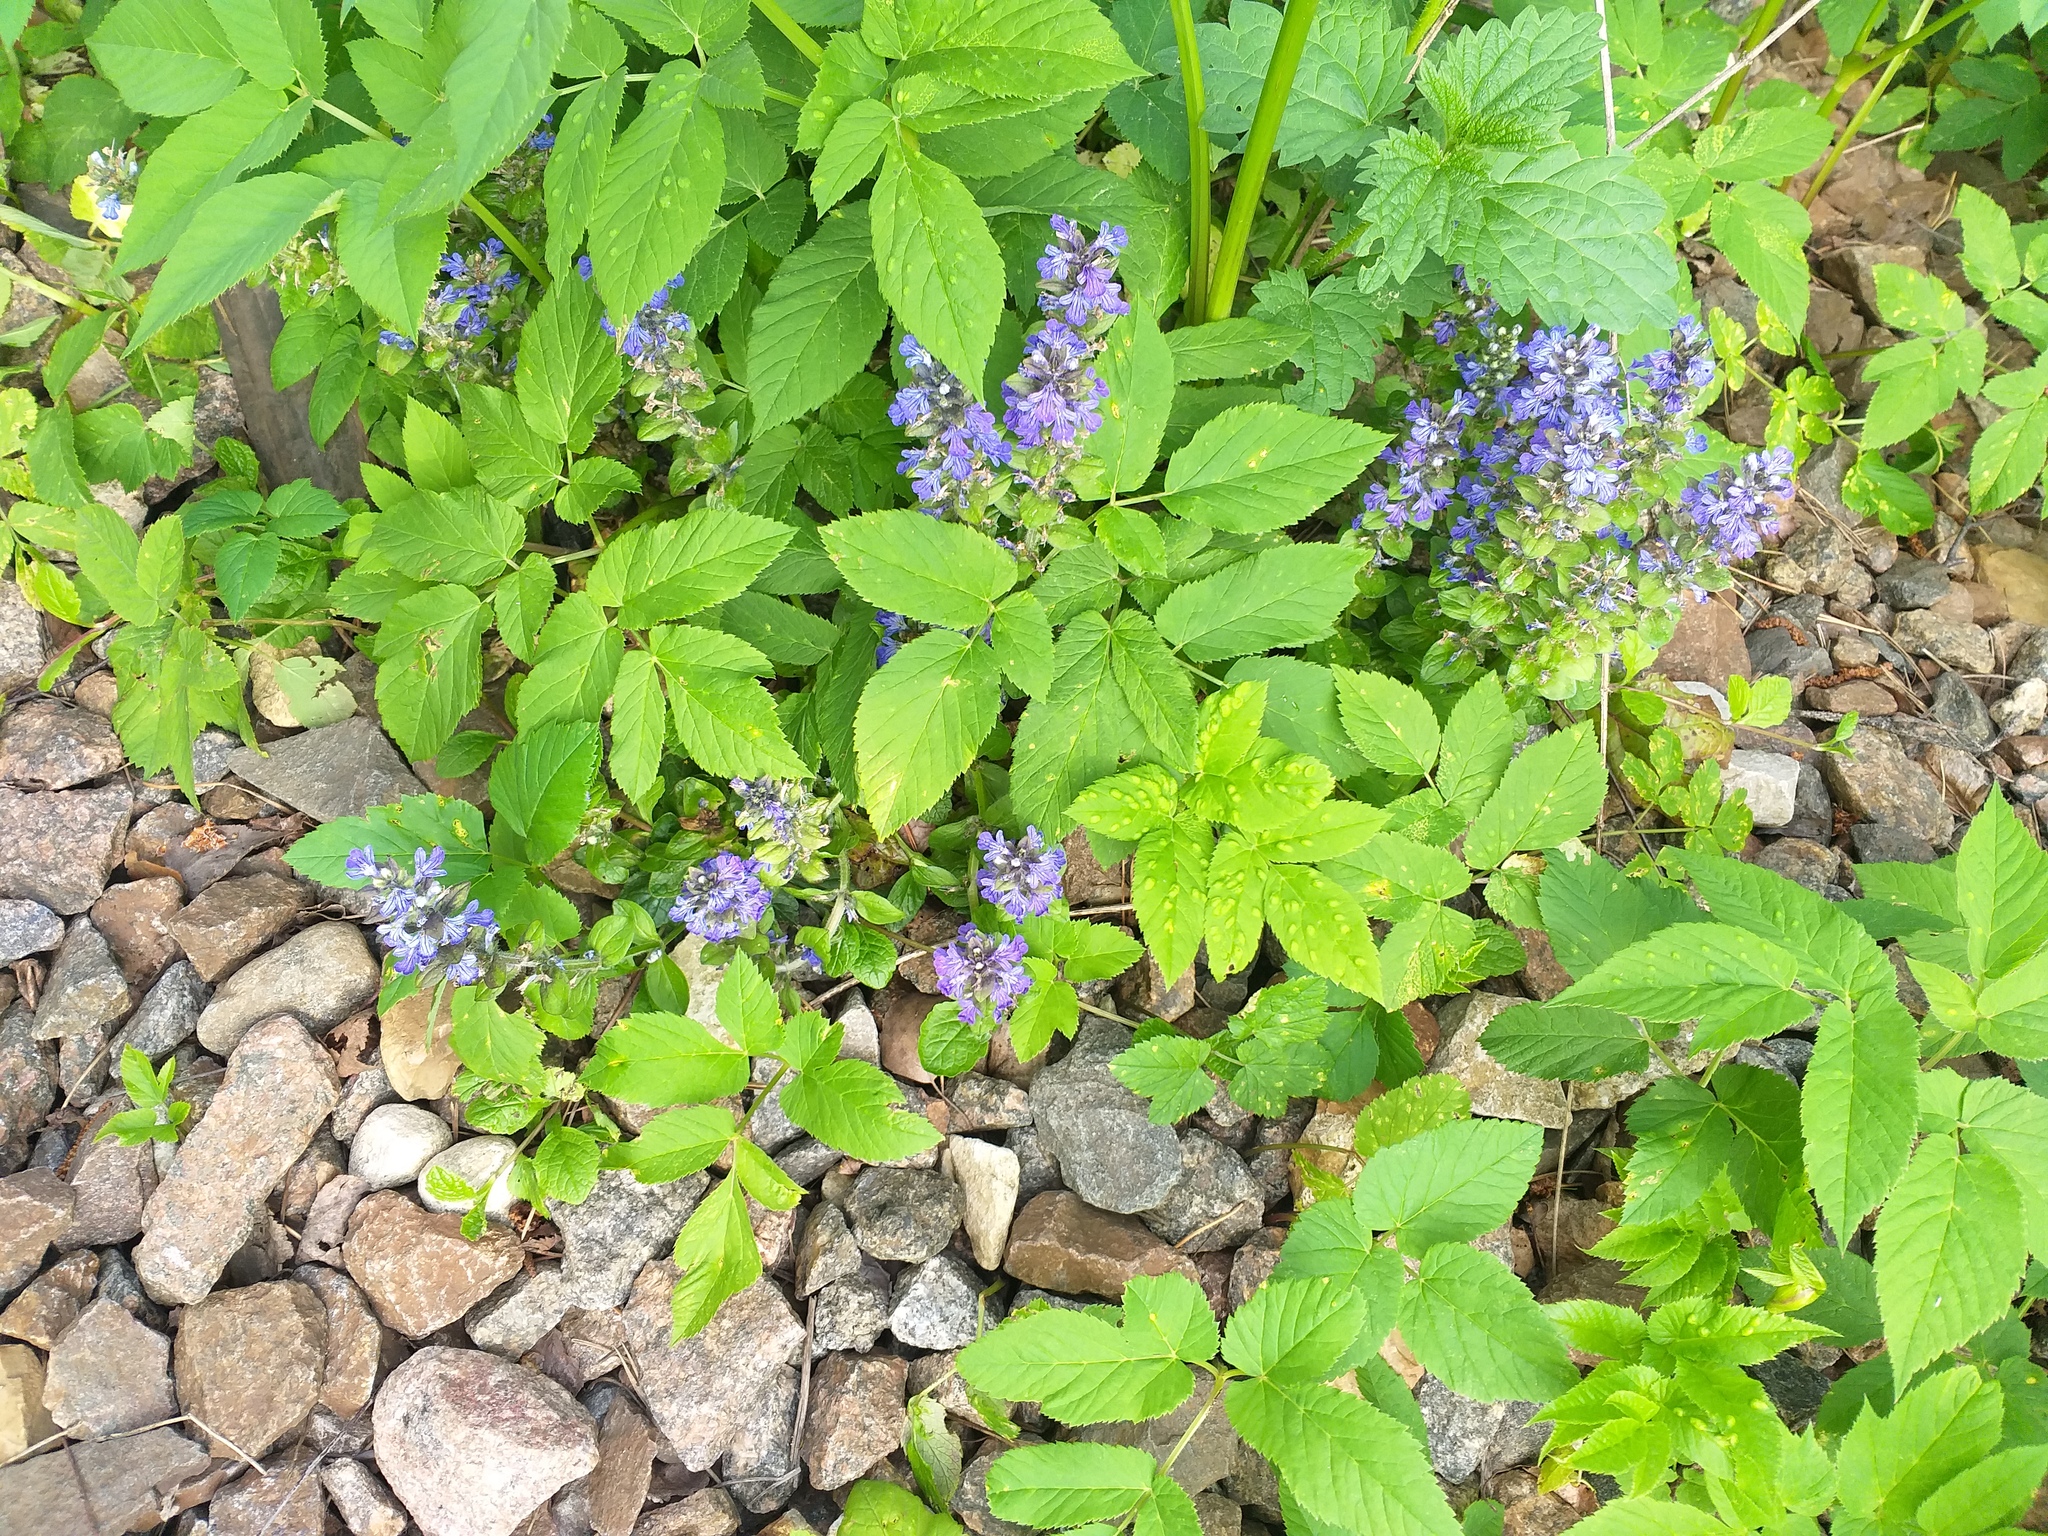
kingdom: Plantae
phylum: Tracheophyta
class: Magnoliopsida
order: Lamiales
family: Lamiaceae
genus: Ajuga
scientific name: Ajuga reptans
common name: Bugle
